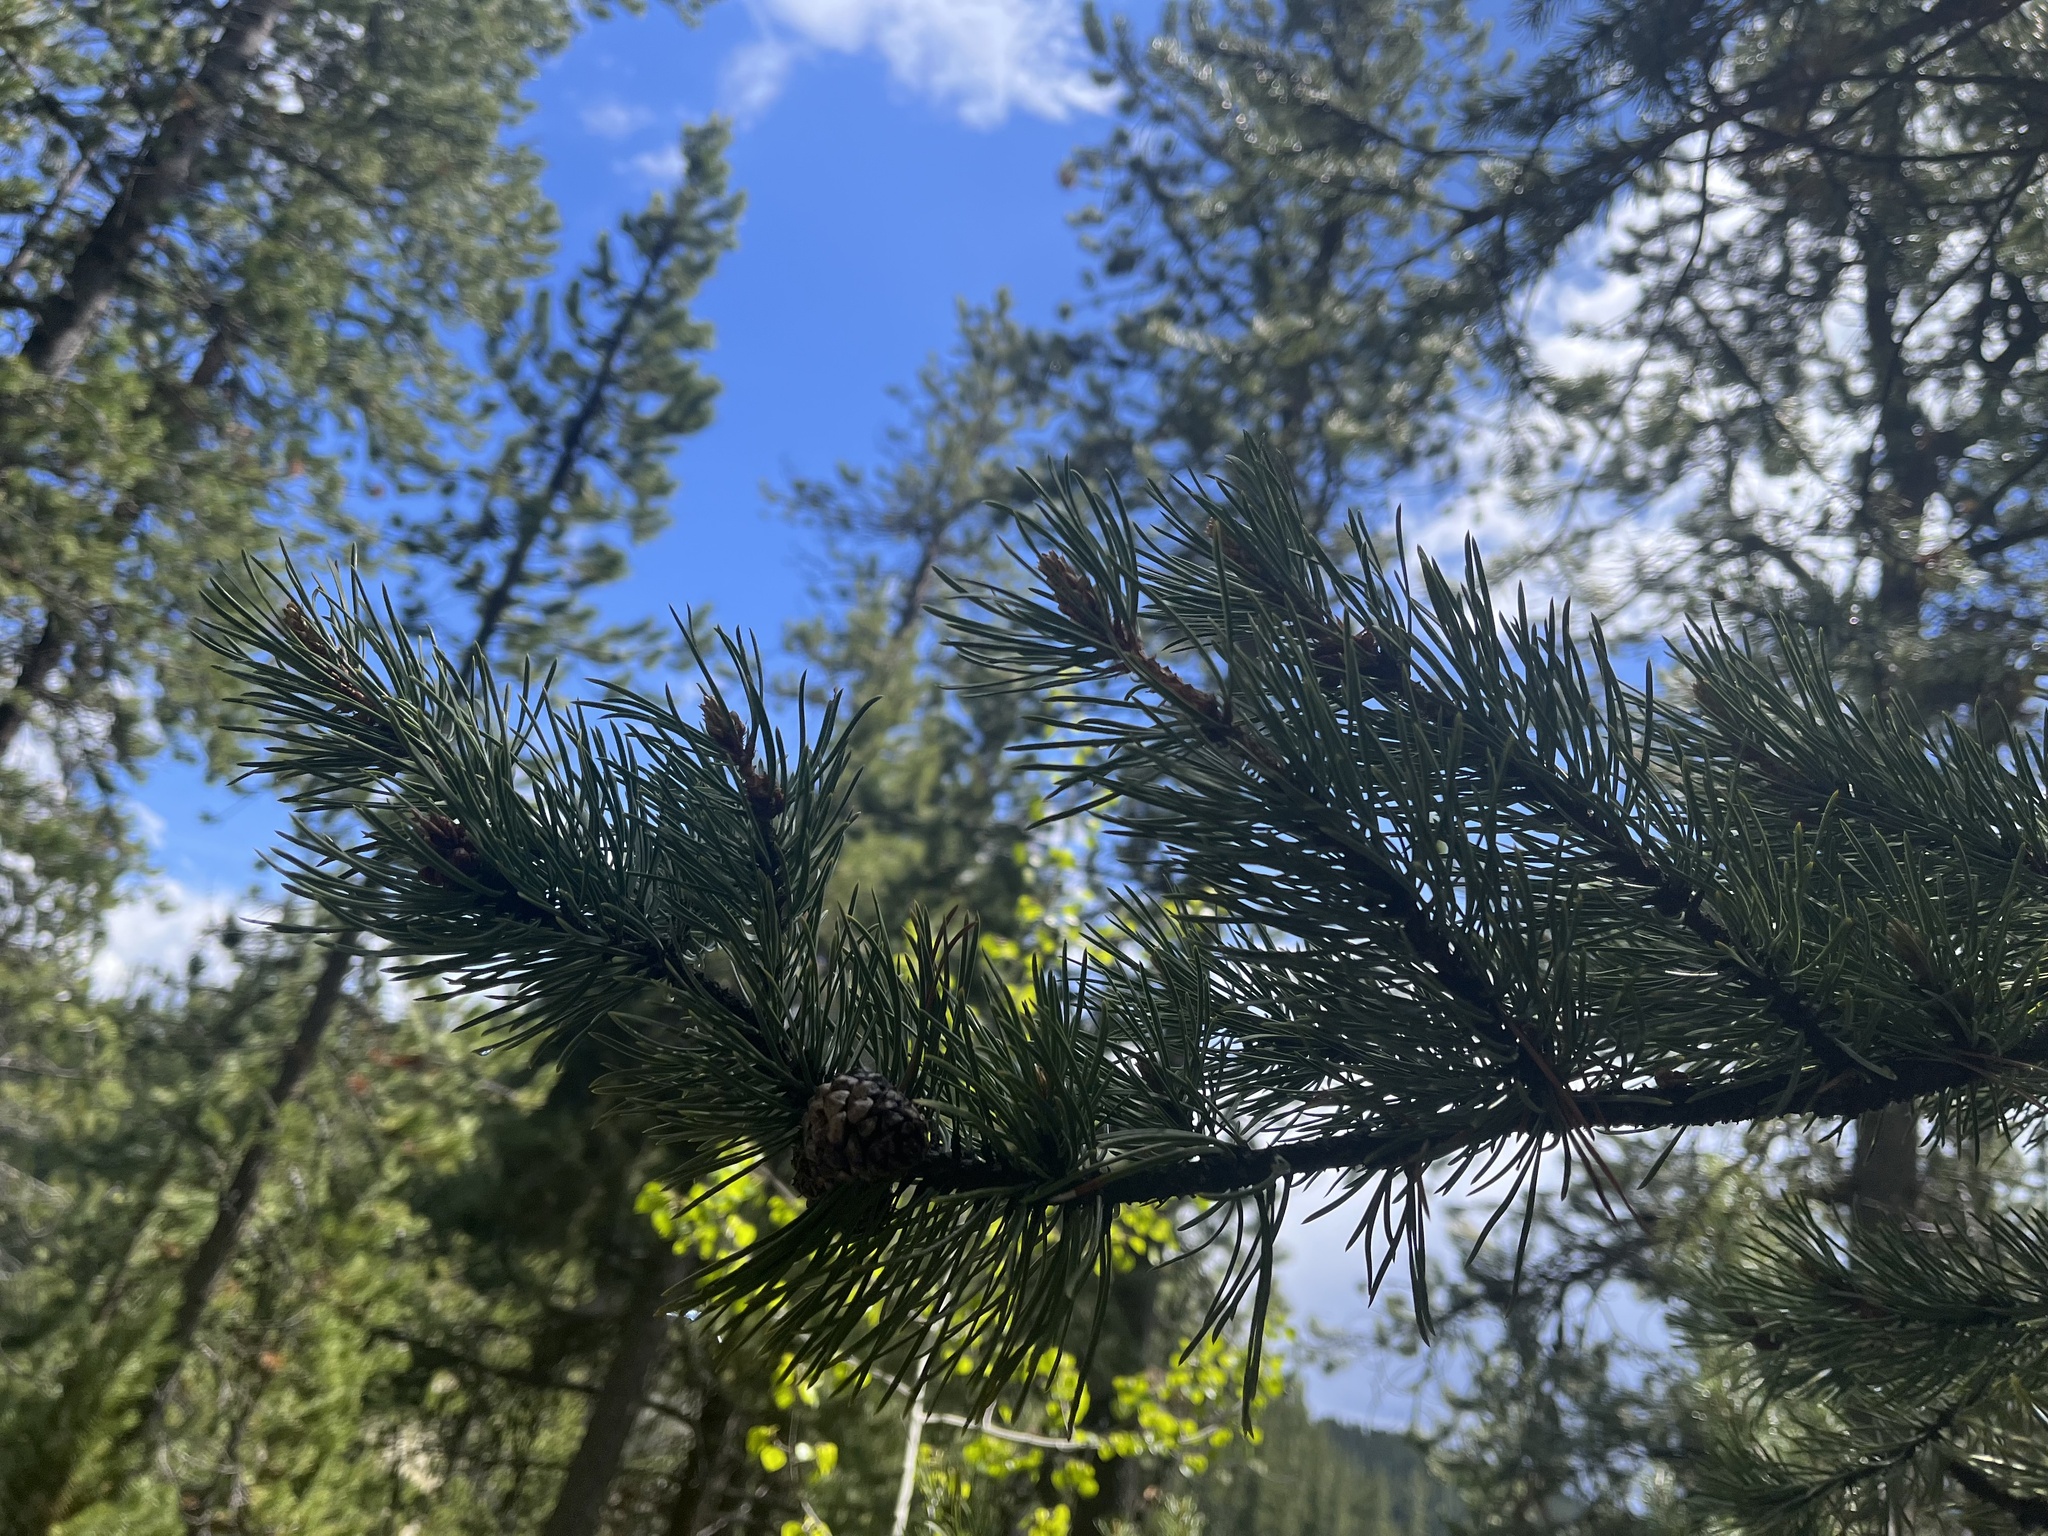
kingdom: Plantae
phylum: Tracheophyta
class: Pinopsida
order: Pinales
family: Pinaceae
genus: Pinus
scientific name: Pinus contorta
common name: Lodgepole pine
